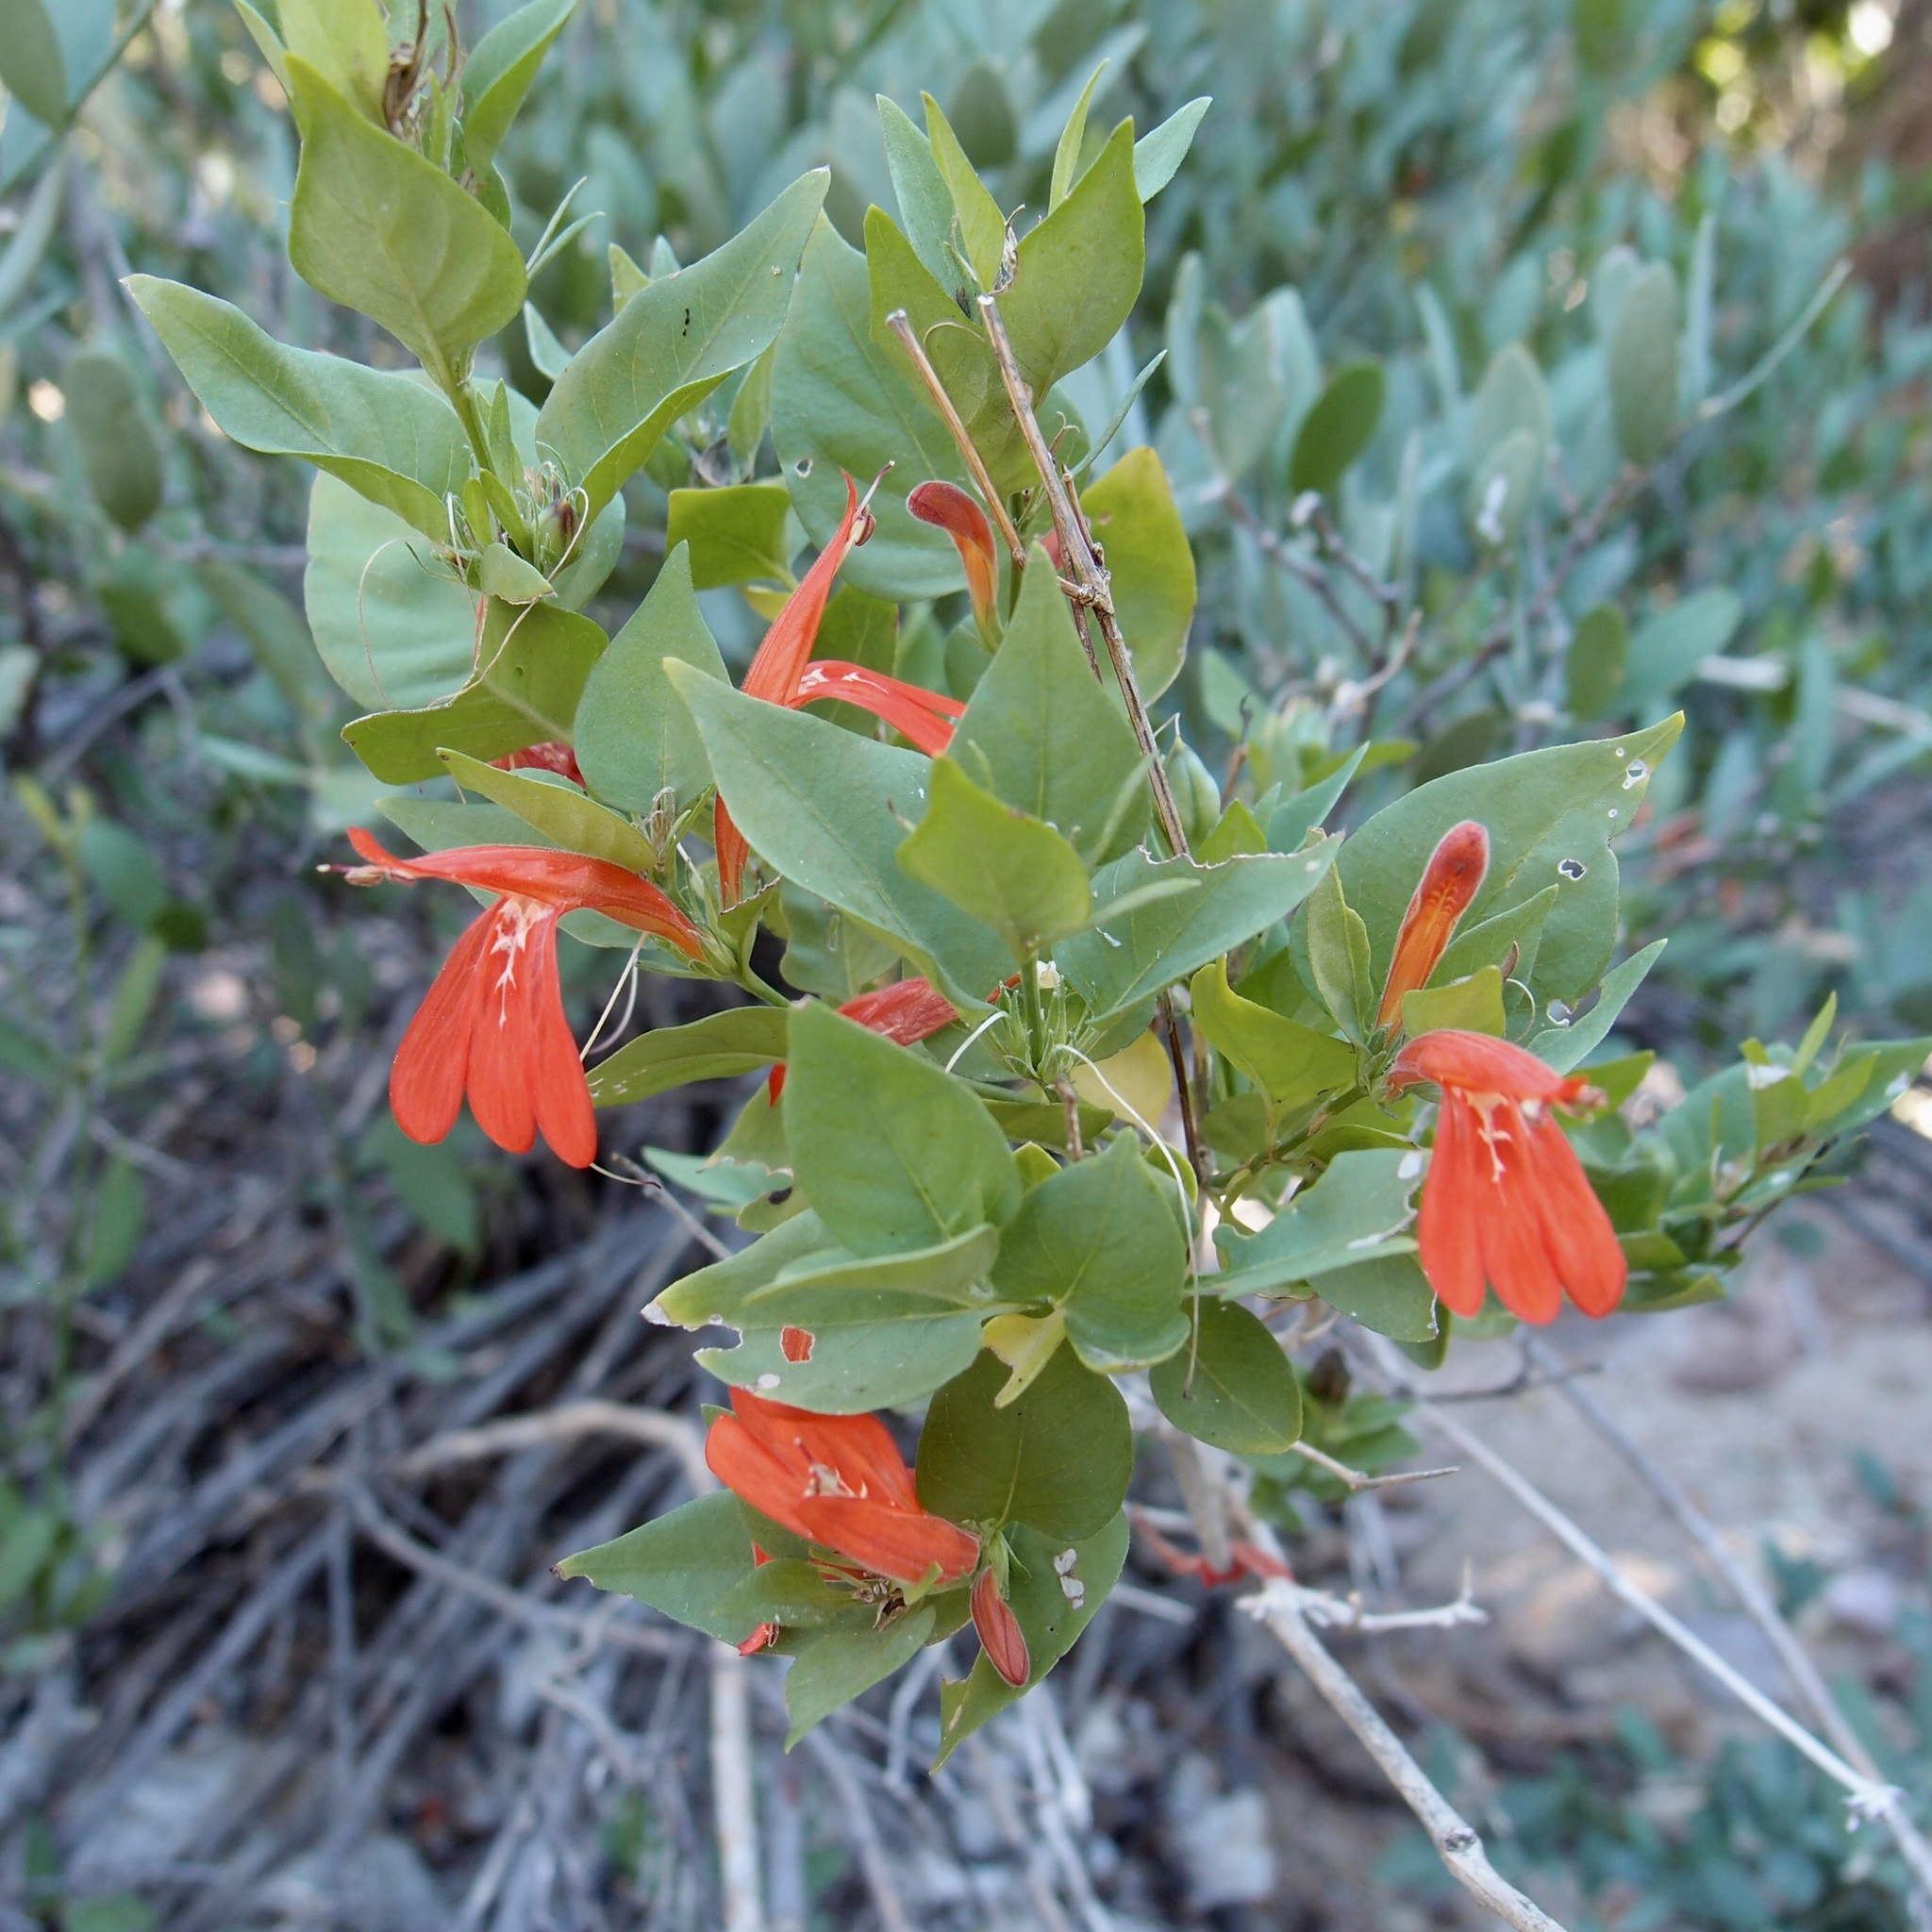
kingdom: Plantae
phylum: Tracheophyta
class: Magnoliopsida
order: Lamiales
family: Acanthaceae
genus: Dianthera
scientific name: Dianthera candicans
